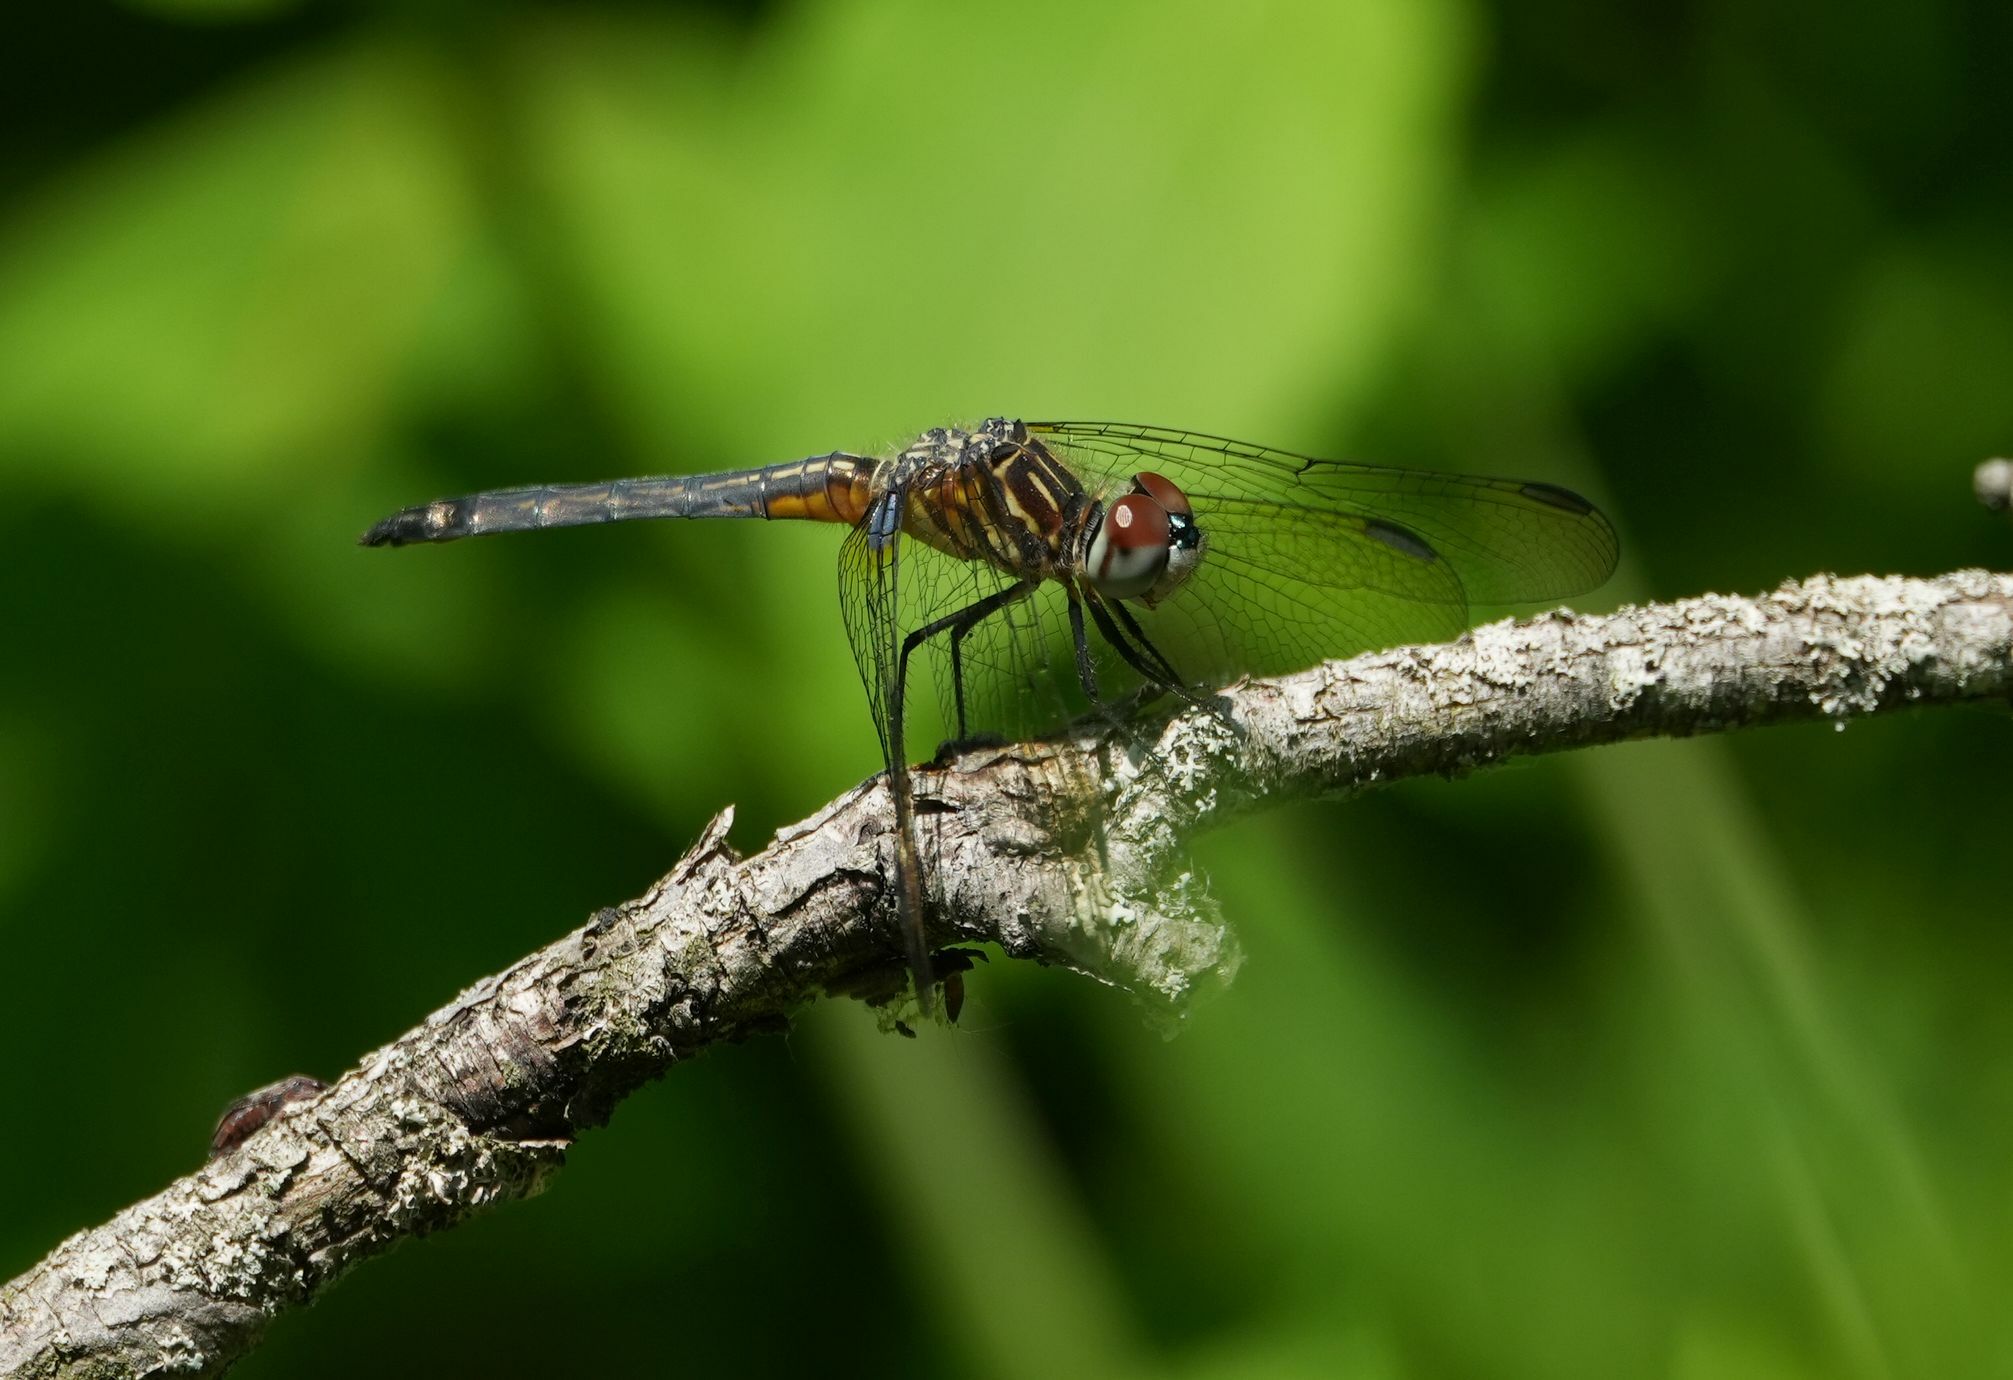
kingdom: Animalia
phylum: Arthropoda
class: Insecta
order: Odonata
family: Libellulidae
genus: Pachydiplax
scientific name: Pachydiplax longipennis
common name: Blue dasher
